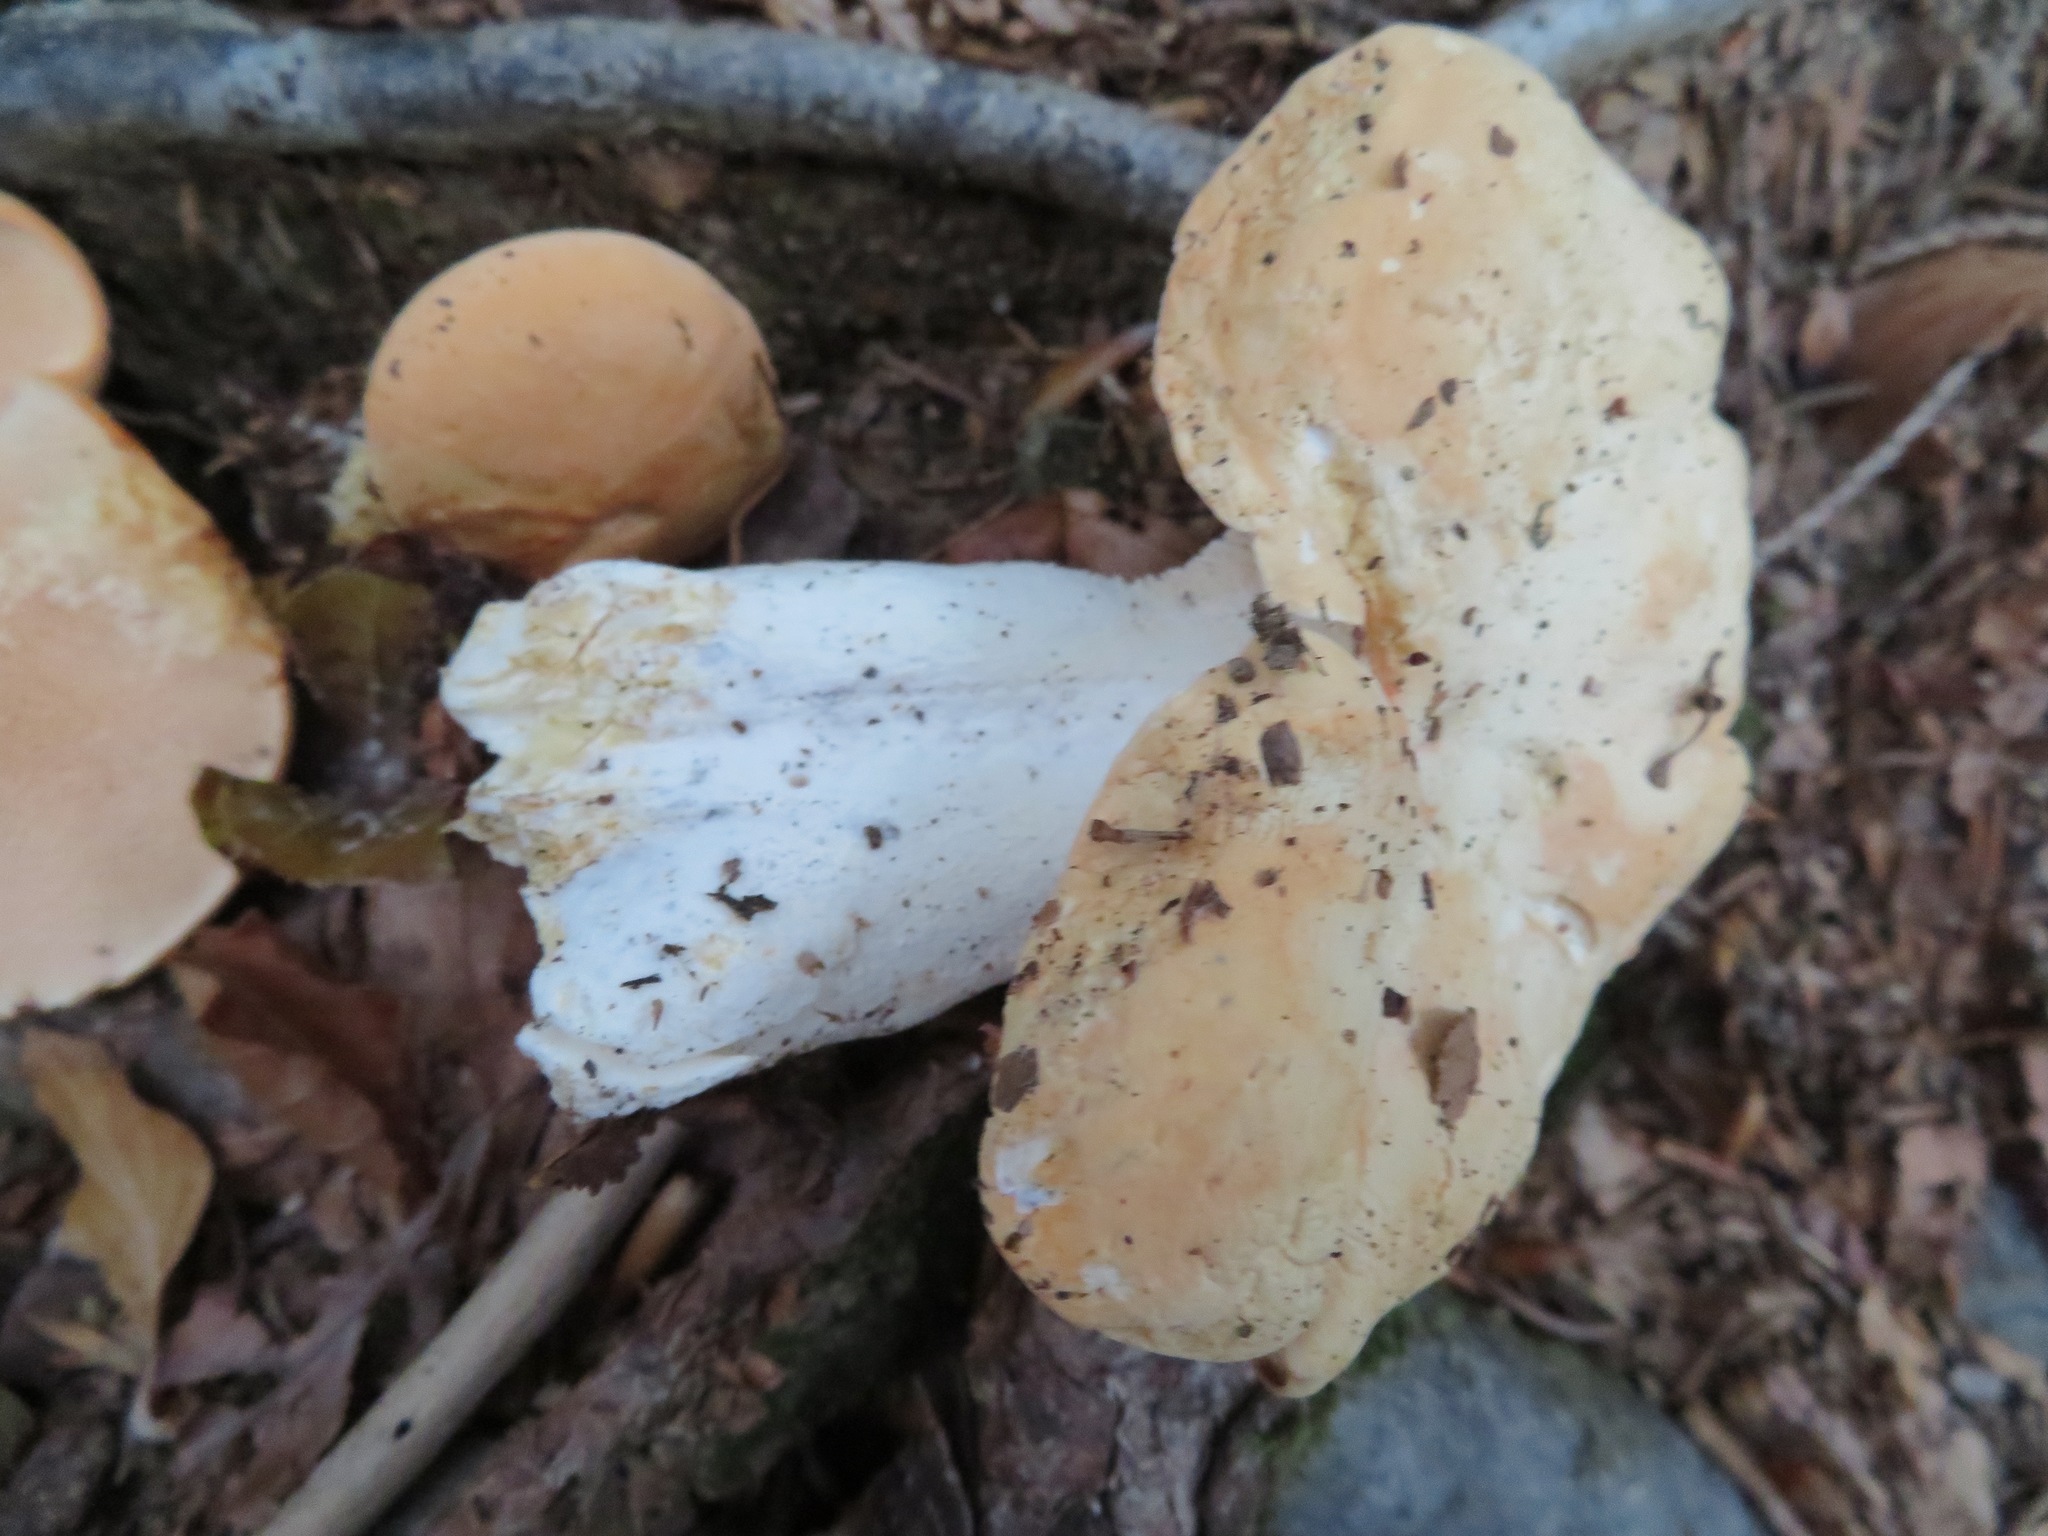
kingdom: Fungi
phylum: Basidiomycota
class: Agaricomycetes
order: Cantharellales
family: Hydnaceae
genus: Hydnum
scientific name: Hydnum repandum
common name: Wood hedgehog
